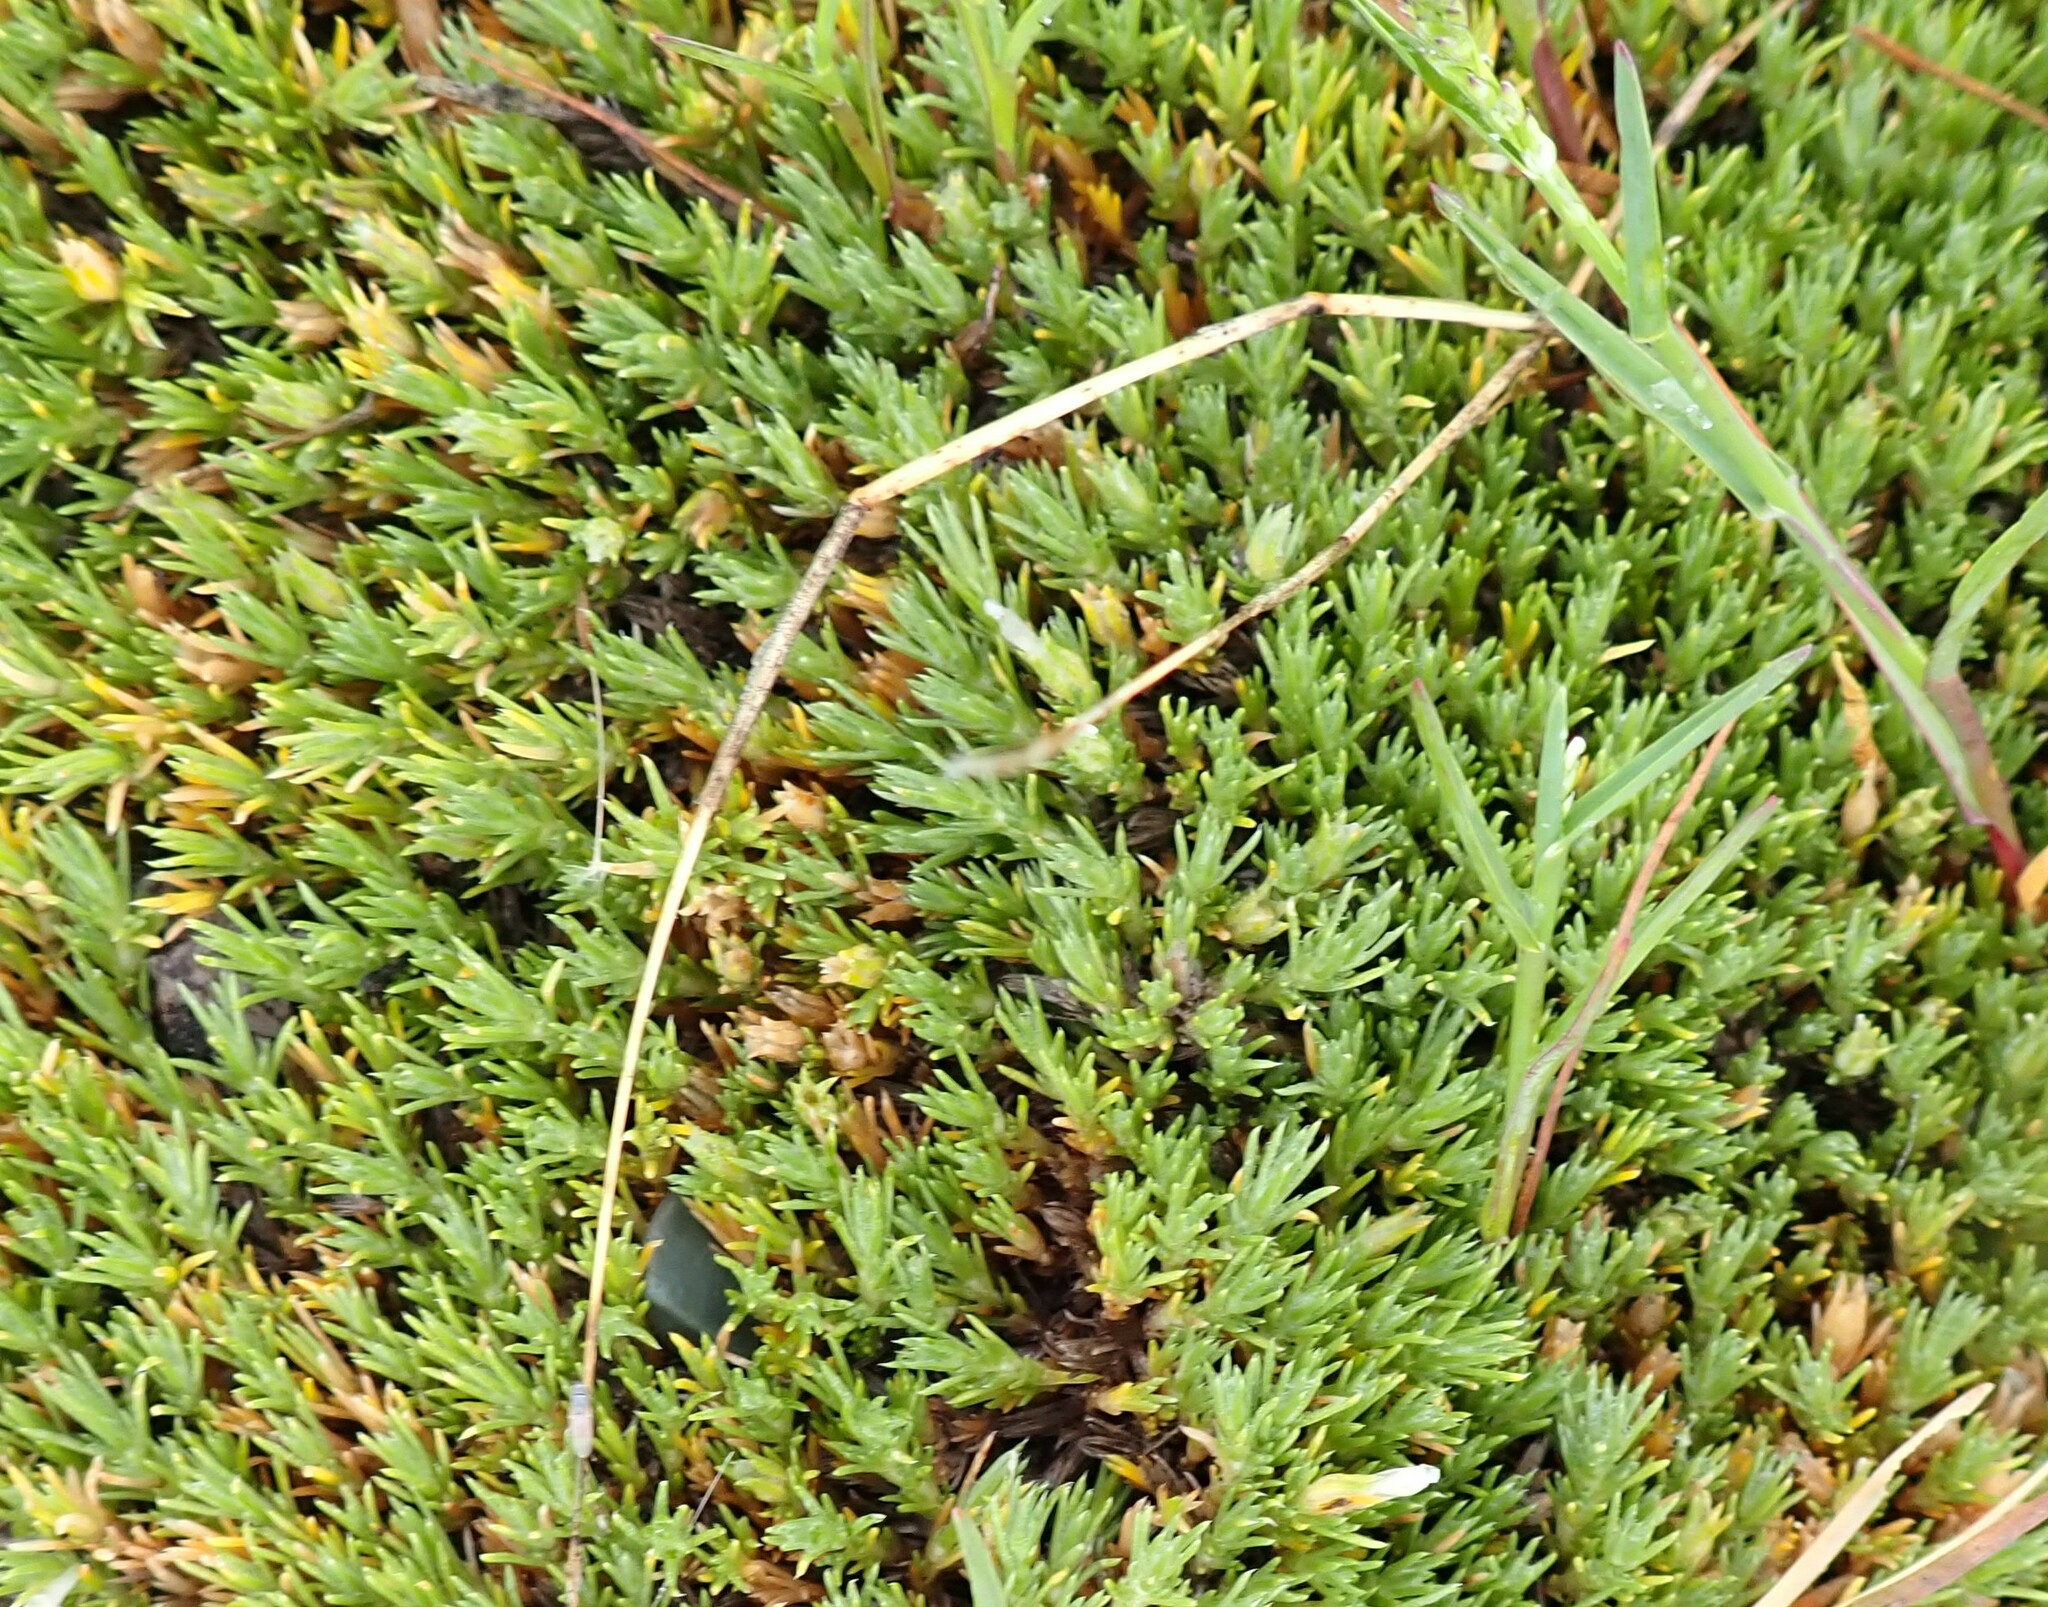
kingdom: Plantae
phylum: Tracheophyta
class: Magnoliopsida
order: Ericales
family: Polemoniaceae
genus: Phlox
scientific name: Phlox hoodii
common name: Moss phlox
